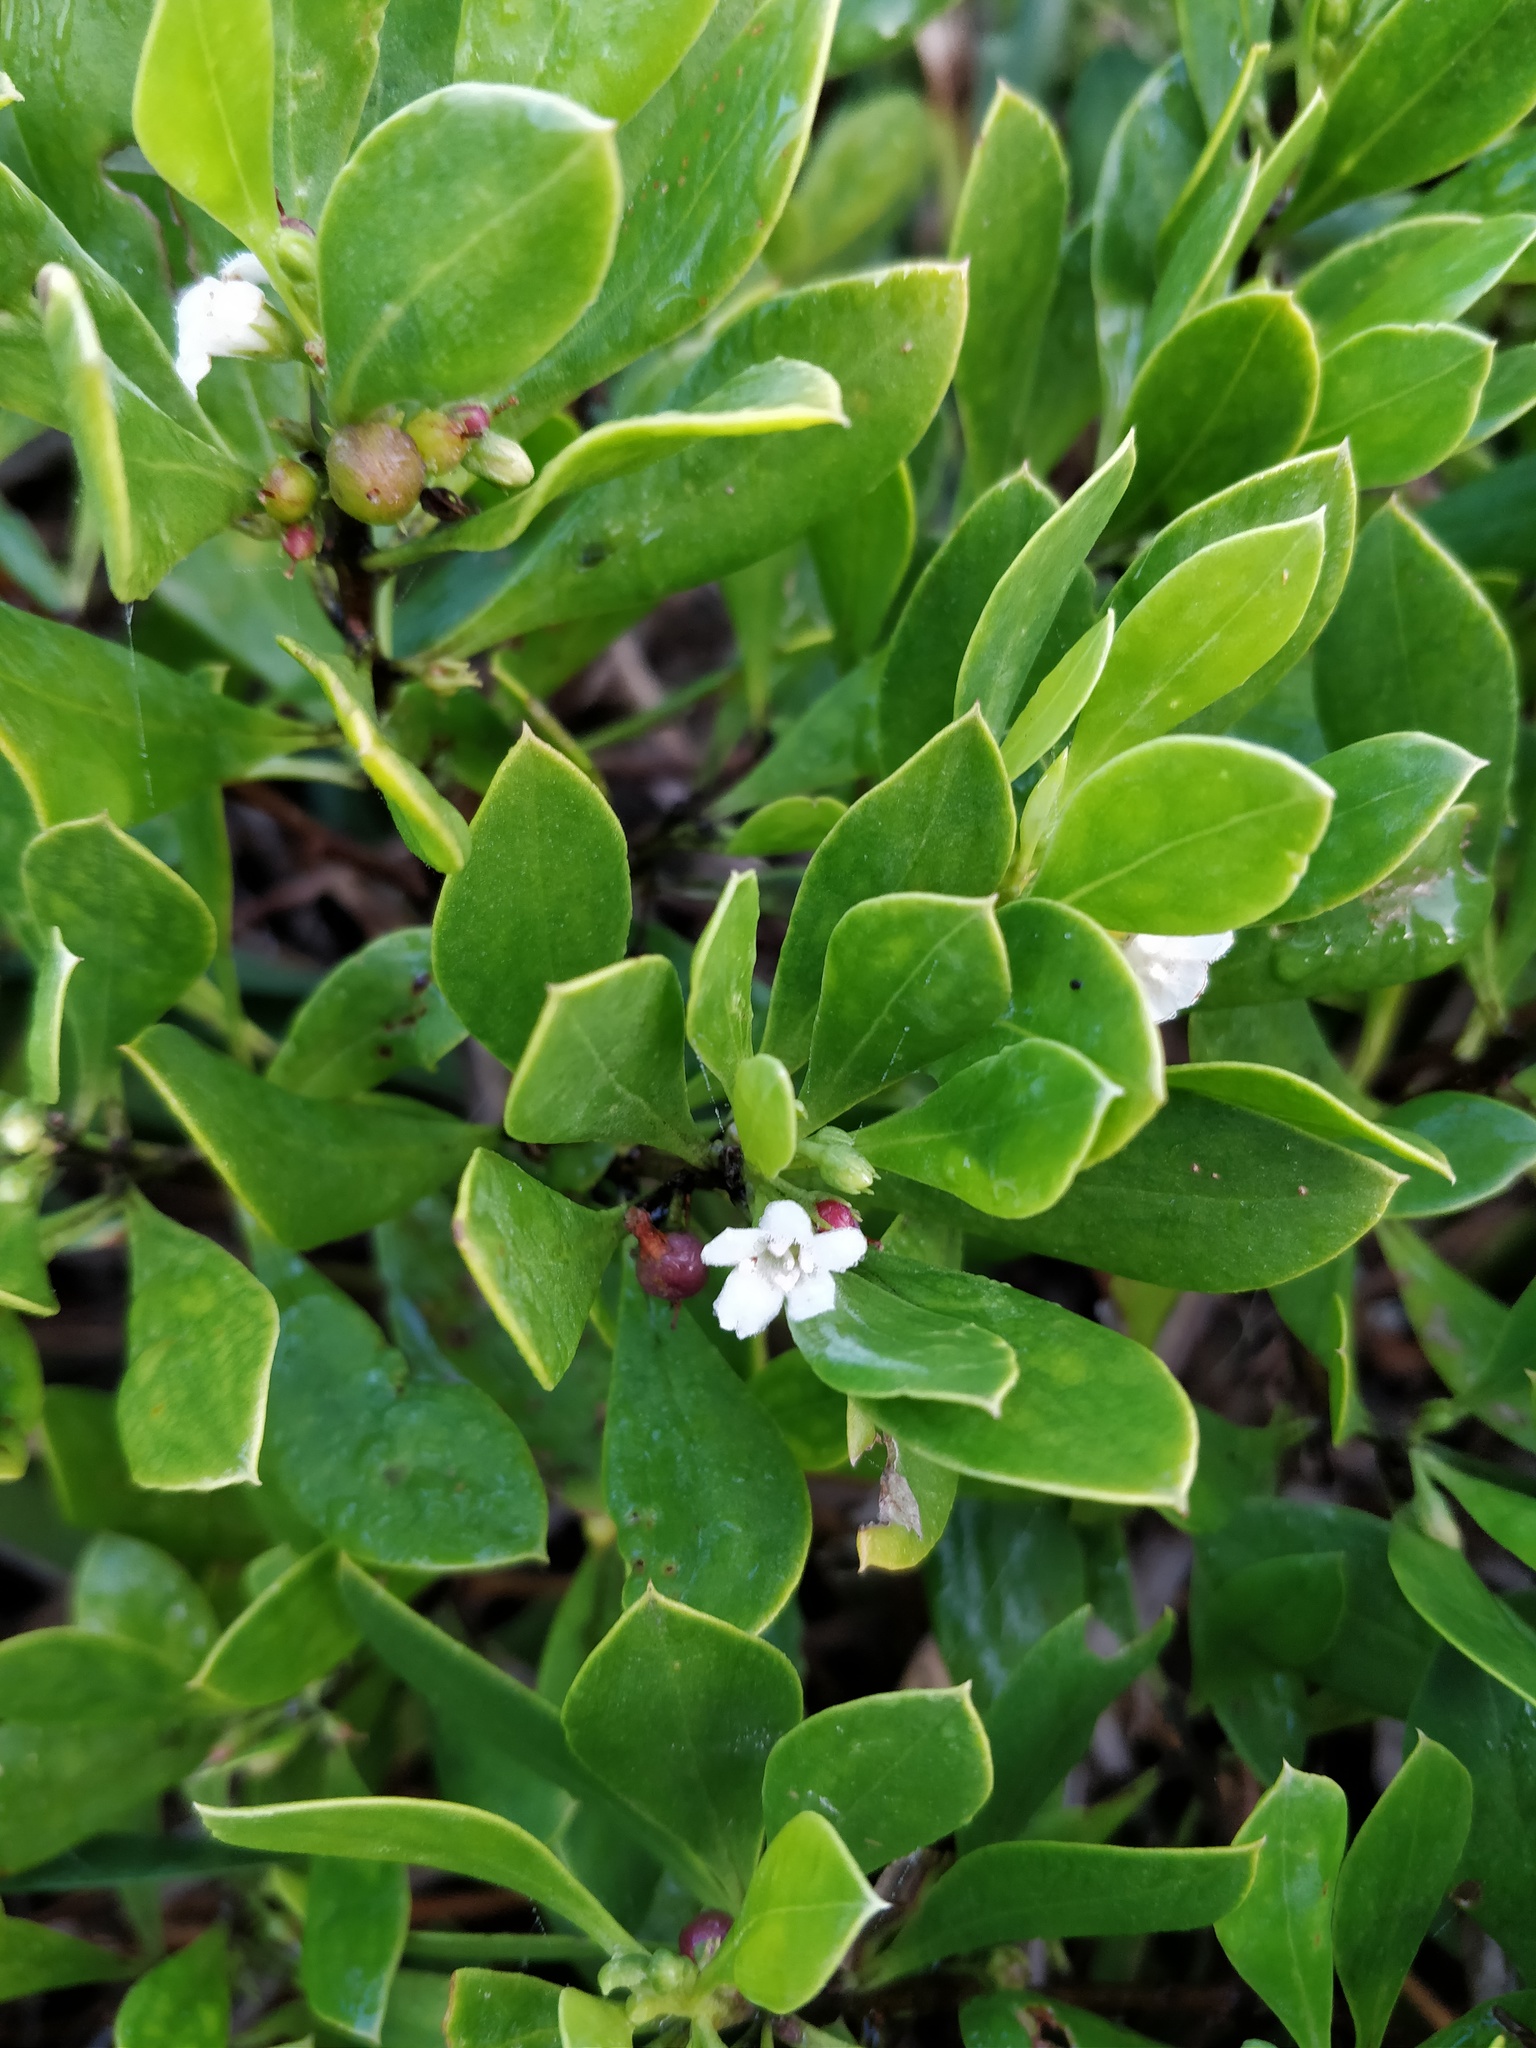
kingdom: Plantae
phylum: Tracheophyta
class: Magnoliopsida
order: Lamiales
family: Scrophulariaceae
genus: Myoporum
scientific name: Myoporum boninense
